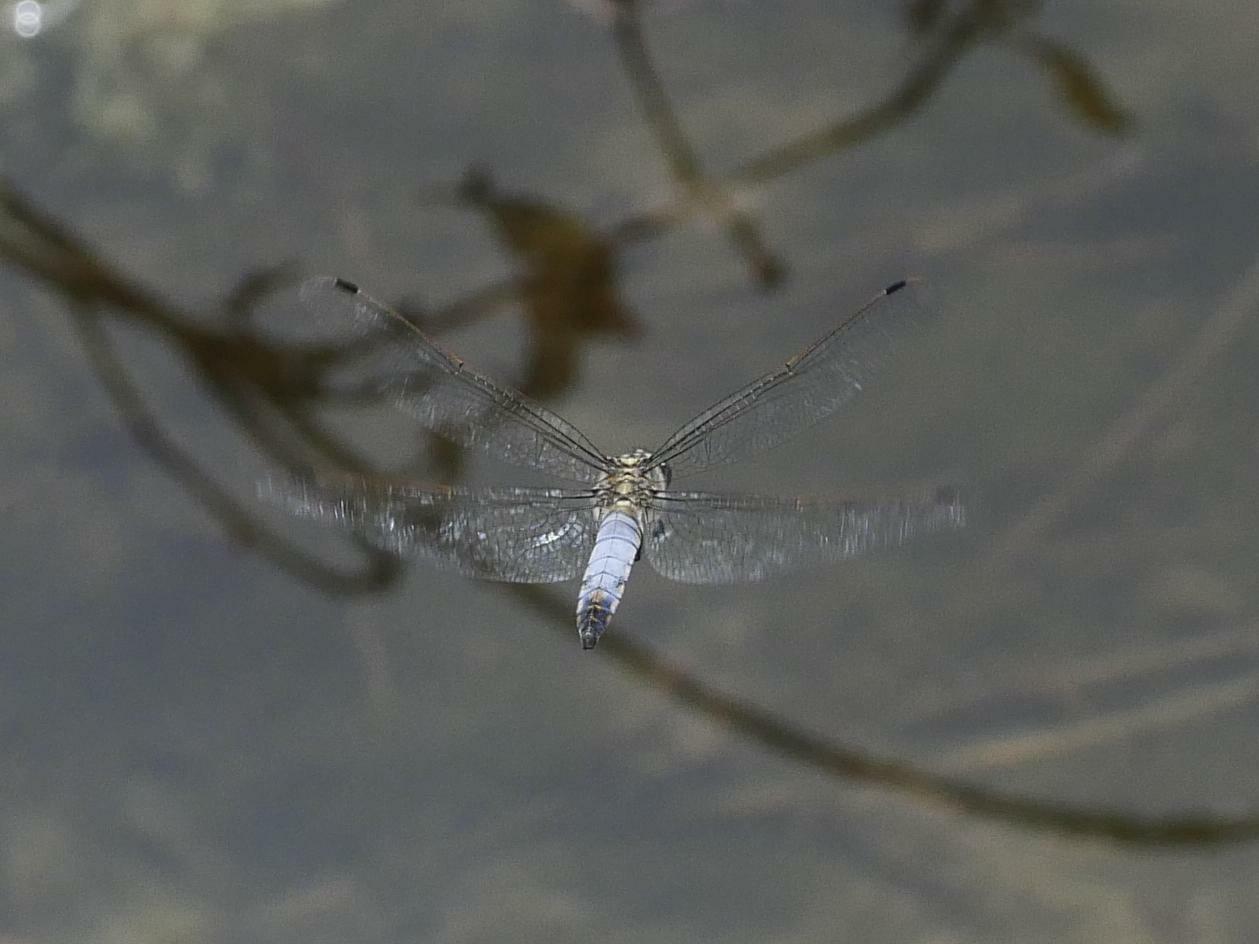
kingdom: Animalia
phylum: Arthropoda
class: Insecta
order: Odonata
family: Libellulidae
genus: Orthetrum
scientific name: Orthetrum cancellatum
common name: Black-tailed skimmer
